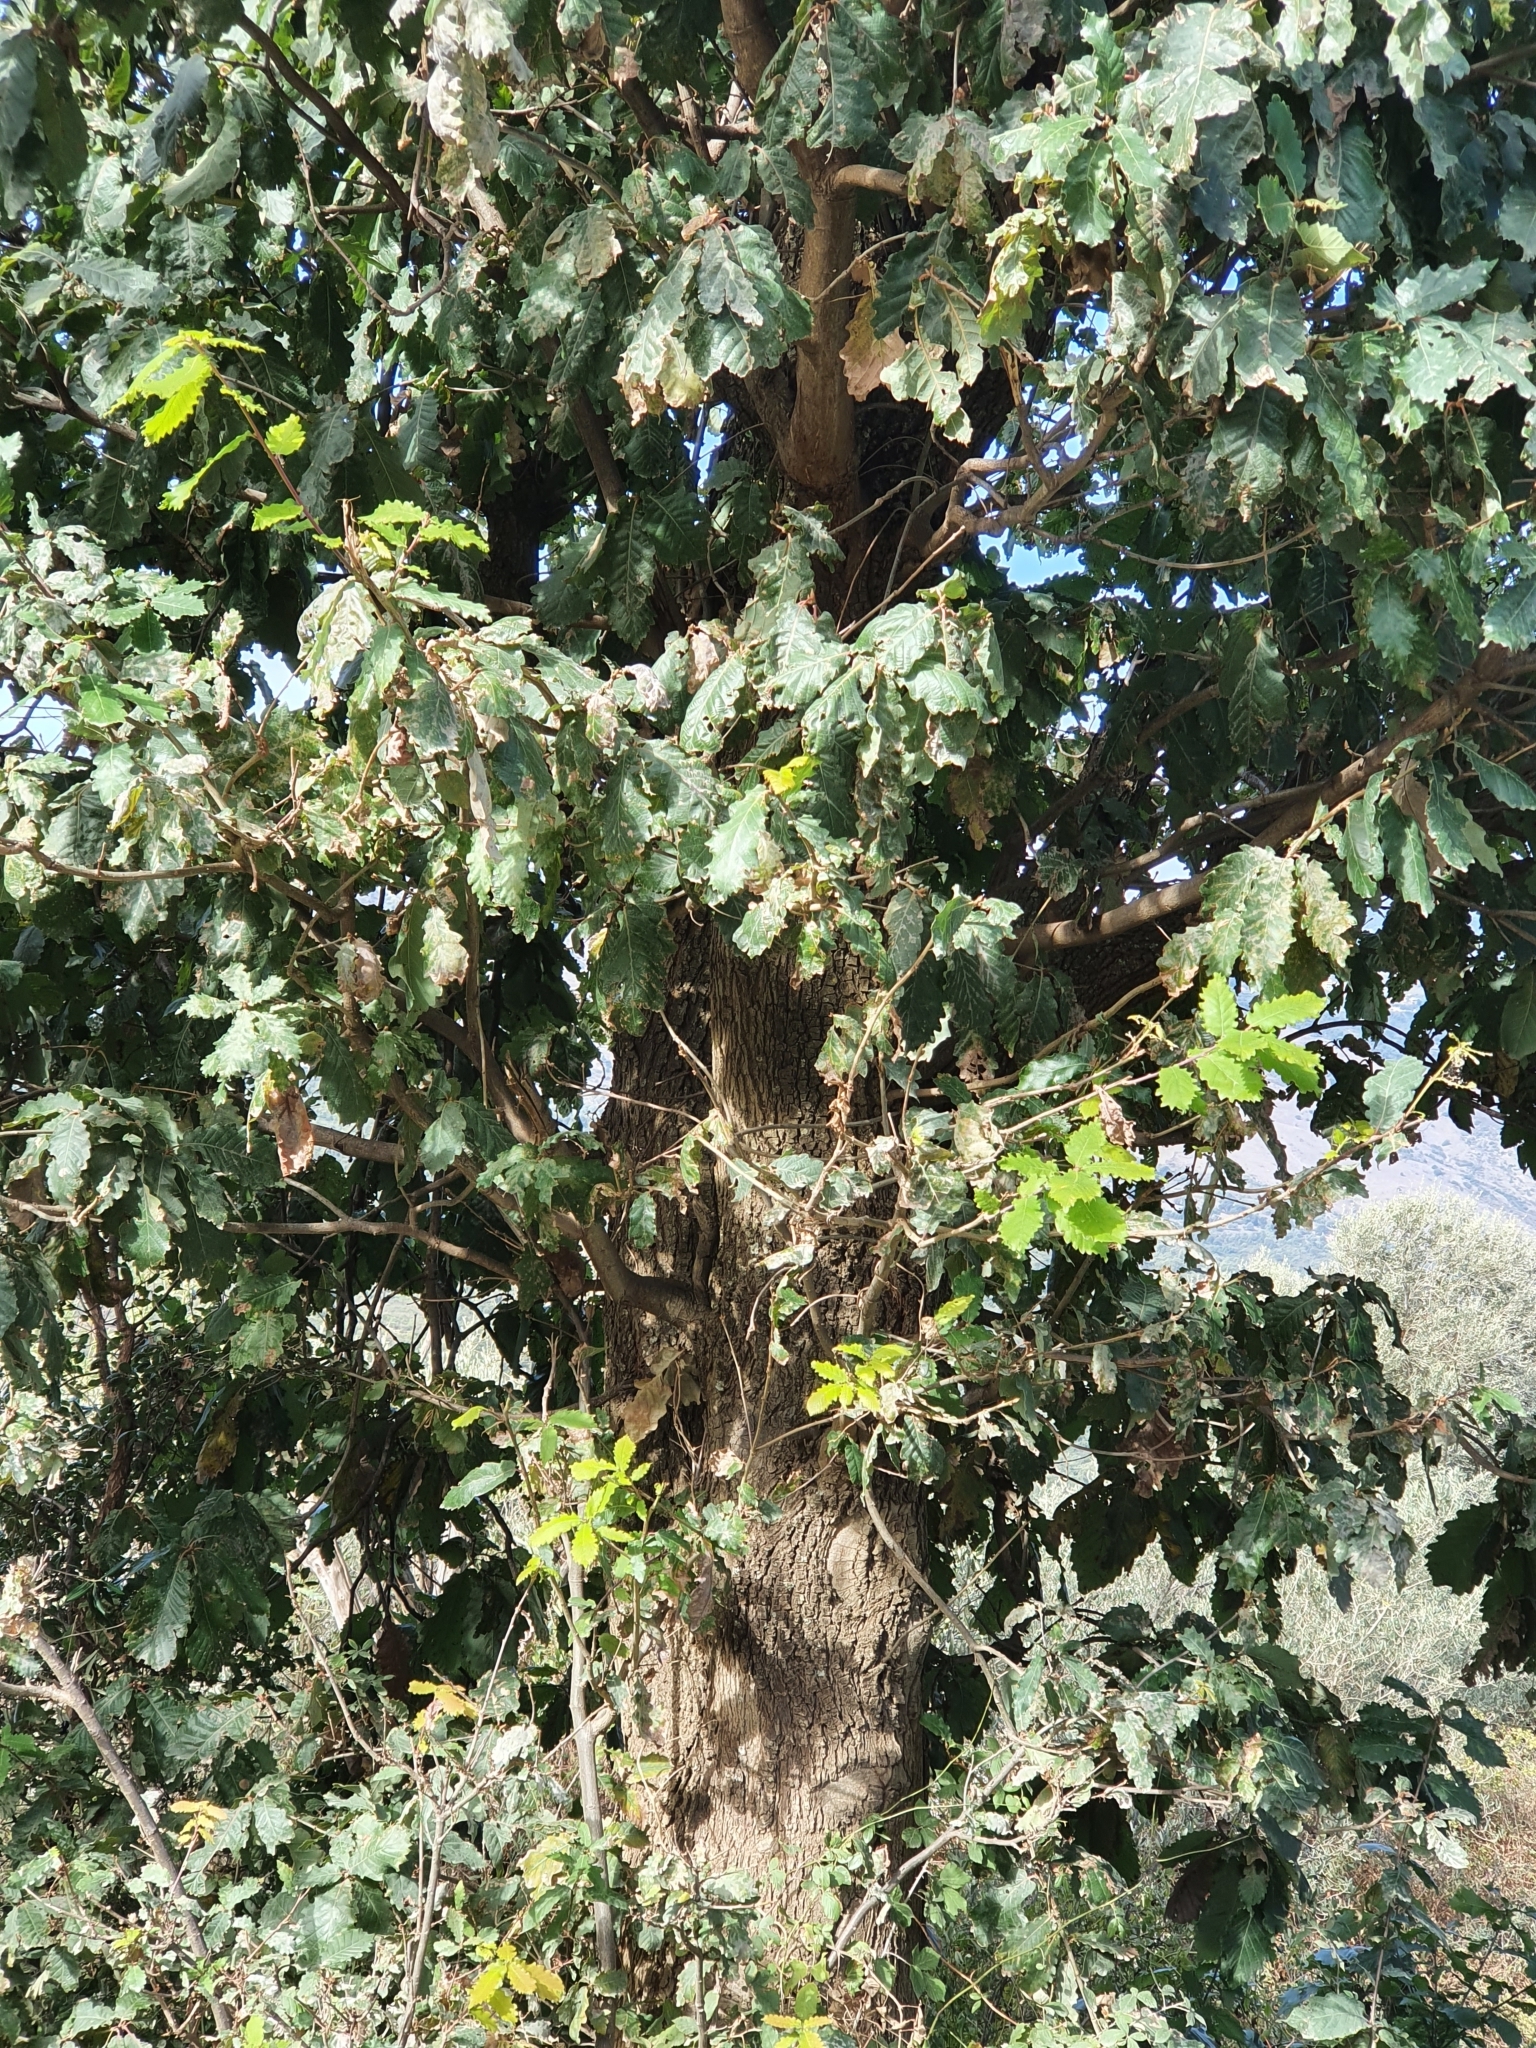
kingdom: Plantae
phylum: Tracheophyta
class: Magnoliopsida
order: Fagales
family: Fagaceae
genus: Quercus
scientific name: Quercus canariensis
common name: Algerian oak
